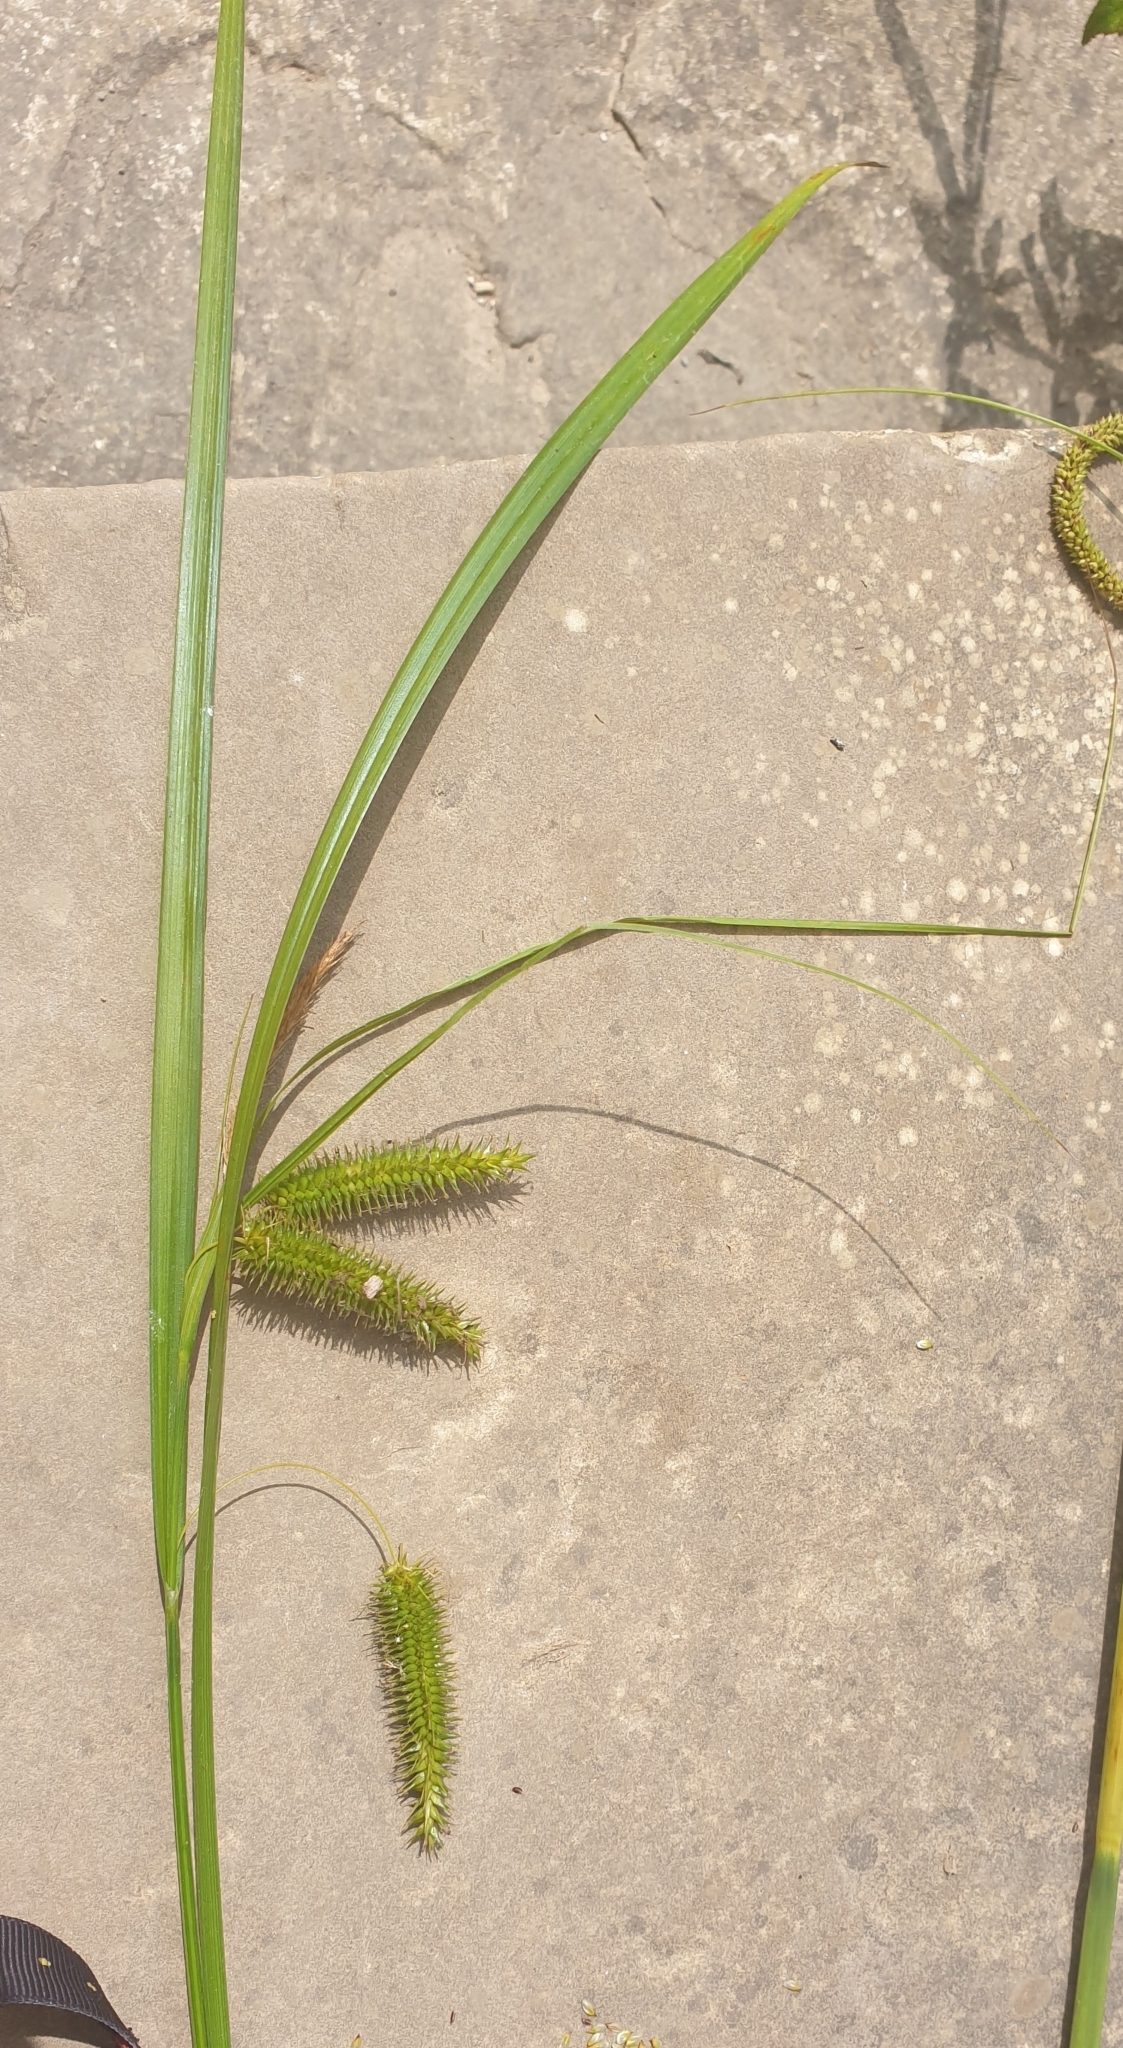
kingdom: Plantae
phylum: Tracheophyta
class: Liliopsida
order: Poales
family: Cyperaceae
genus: Carex
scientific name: Carex pseudocyperus
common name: Cyperus sedge
